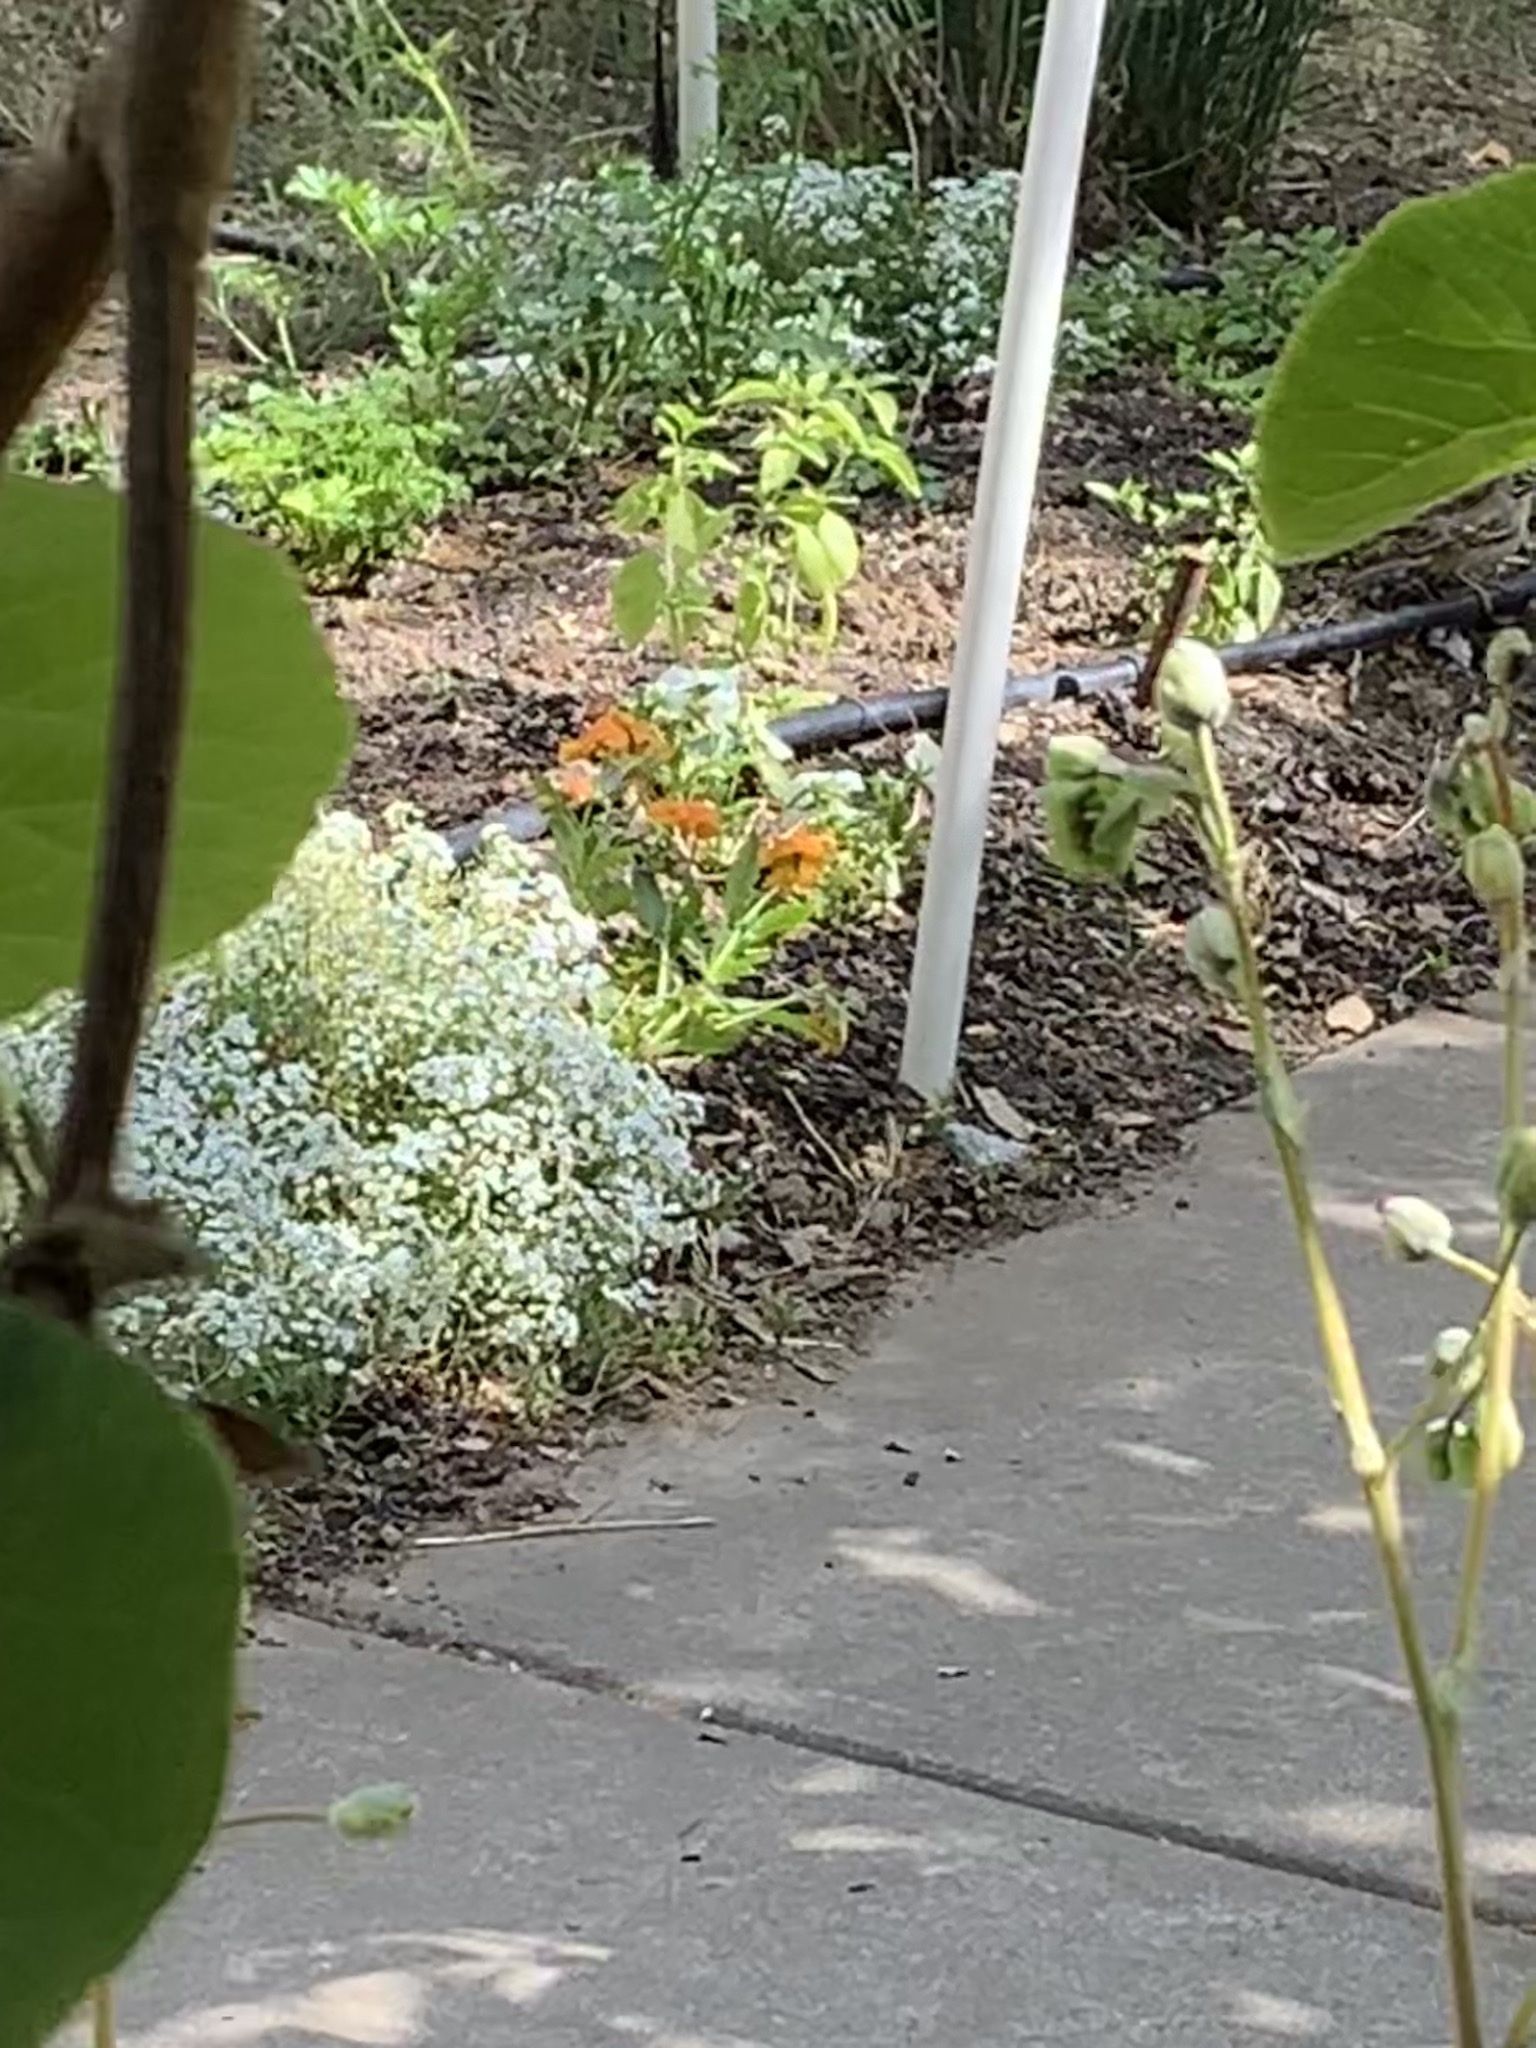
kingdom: Animalia
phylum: Chordata
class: Aves
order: Passeriformes
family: Passerellidae
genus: Chondestes
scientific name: Chondestes grammacus
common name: Lark sparrow
